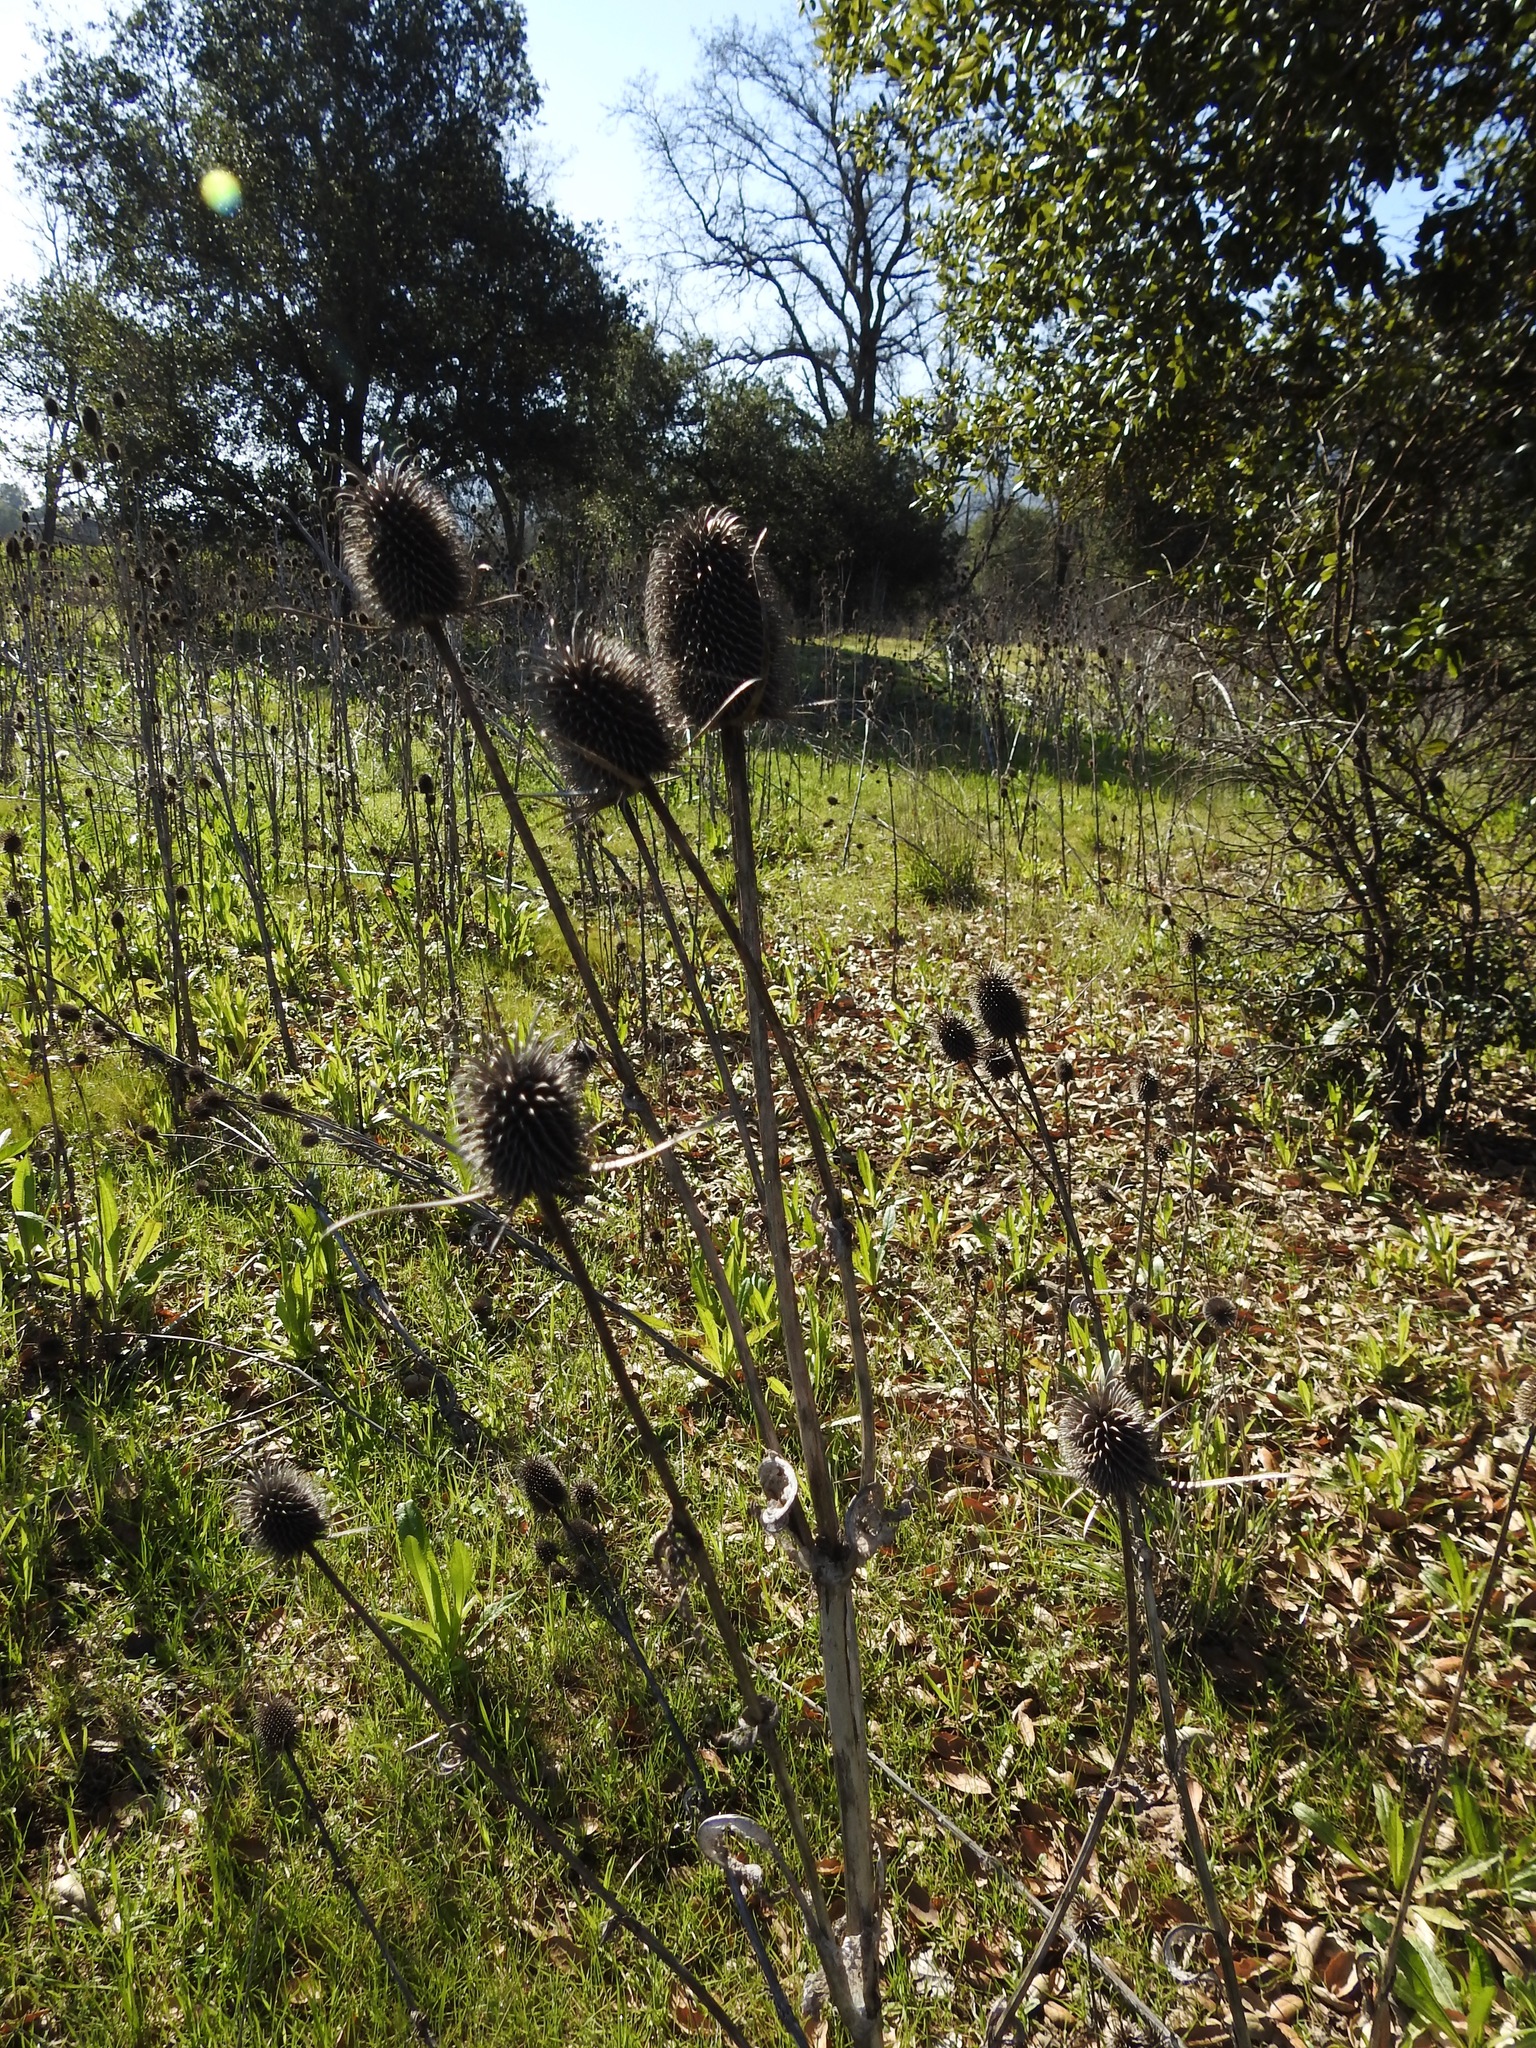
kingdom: Plantae
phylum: Tracheophyta
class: Magnoliopsida
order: Dipsacales
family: Caprifoliaceae
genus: Dipsacus
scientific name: Dipsacus sativus
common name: Fuller's teasel
